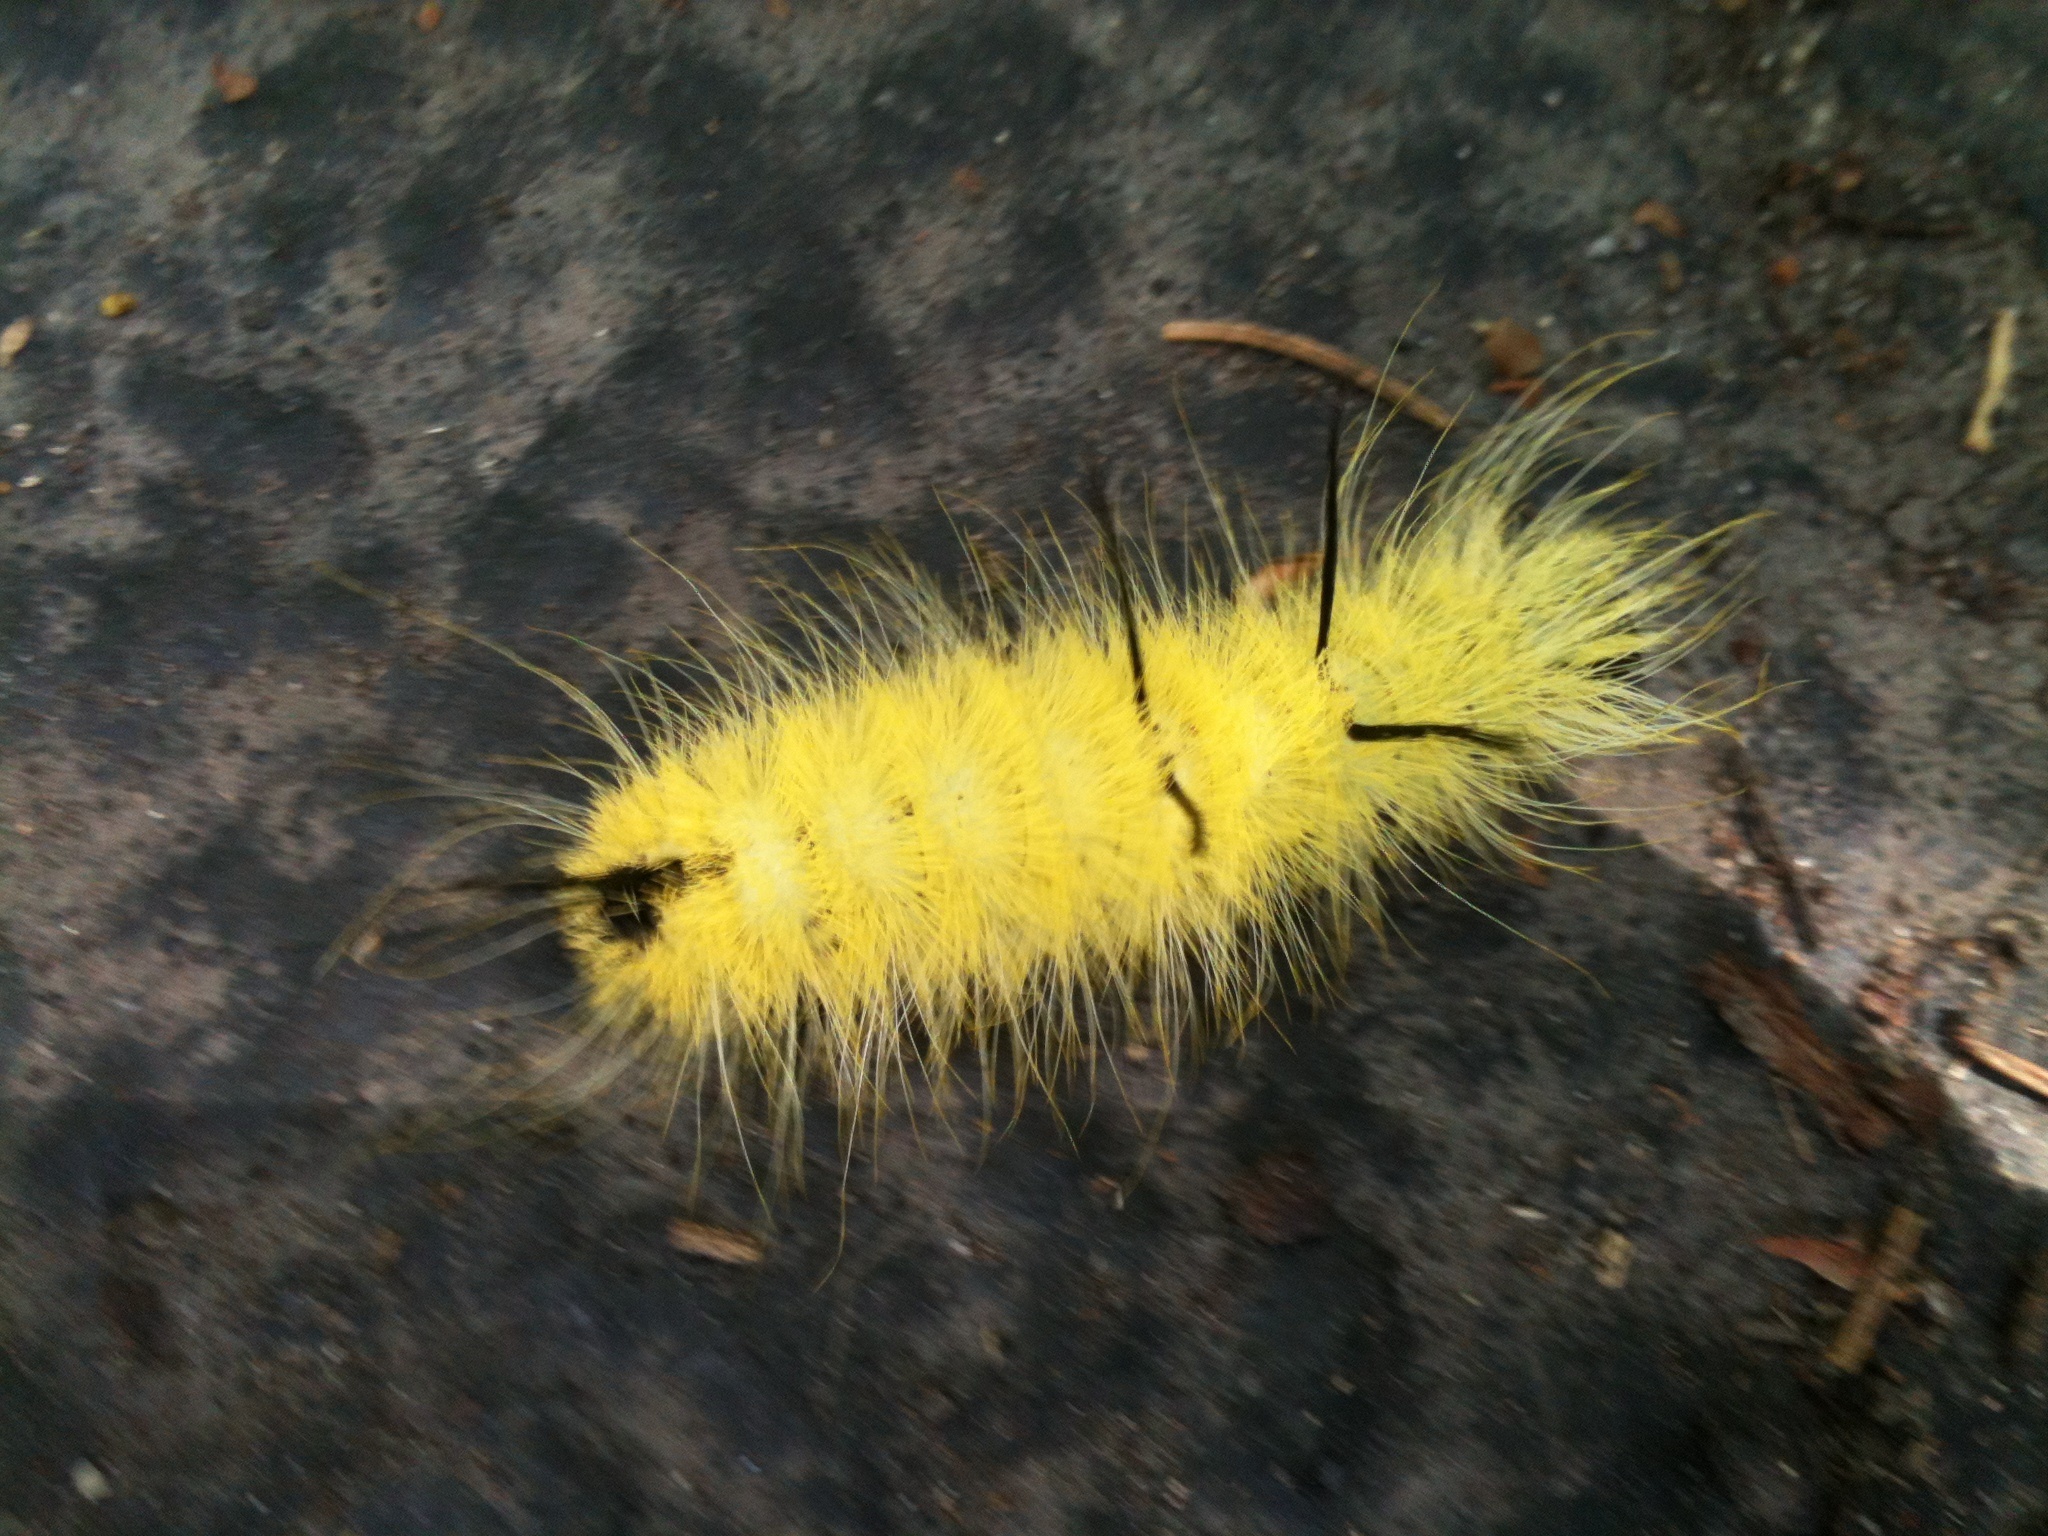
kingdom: Animalia
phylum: Arthropoda
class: Insecta
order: Lepidoptera
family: Noctuidae
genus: Acronicta
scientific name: Acronicta americana
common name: American dagger
